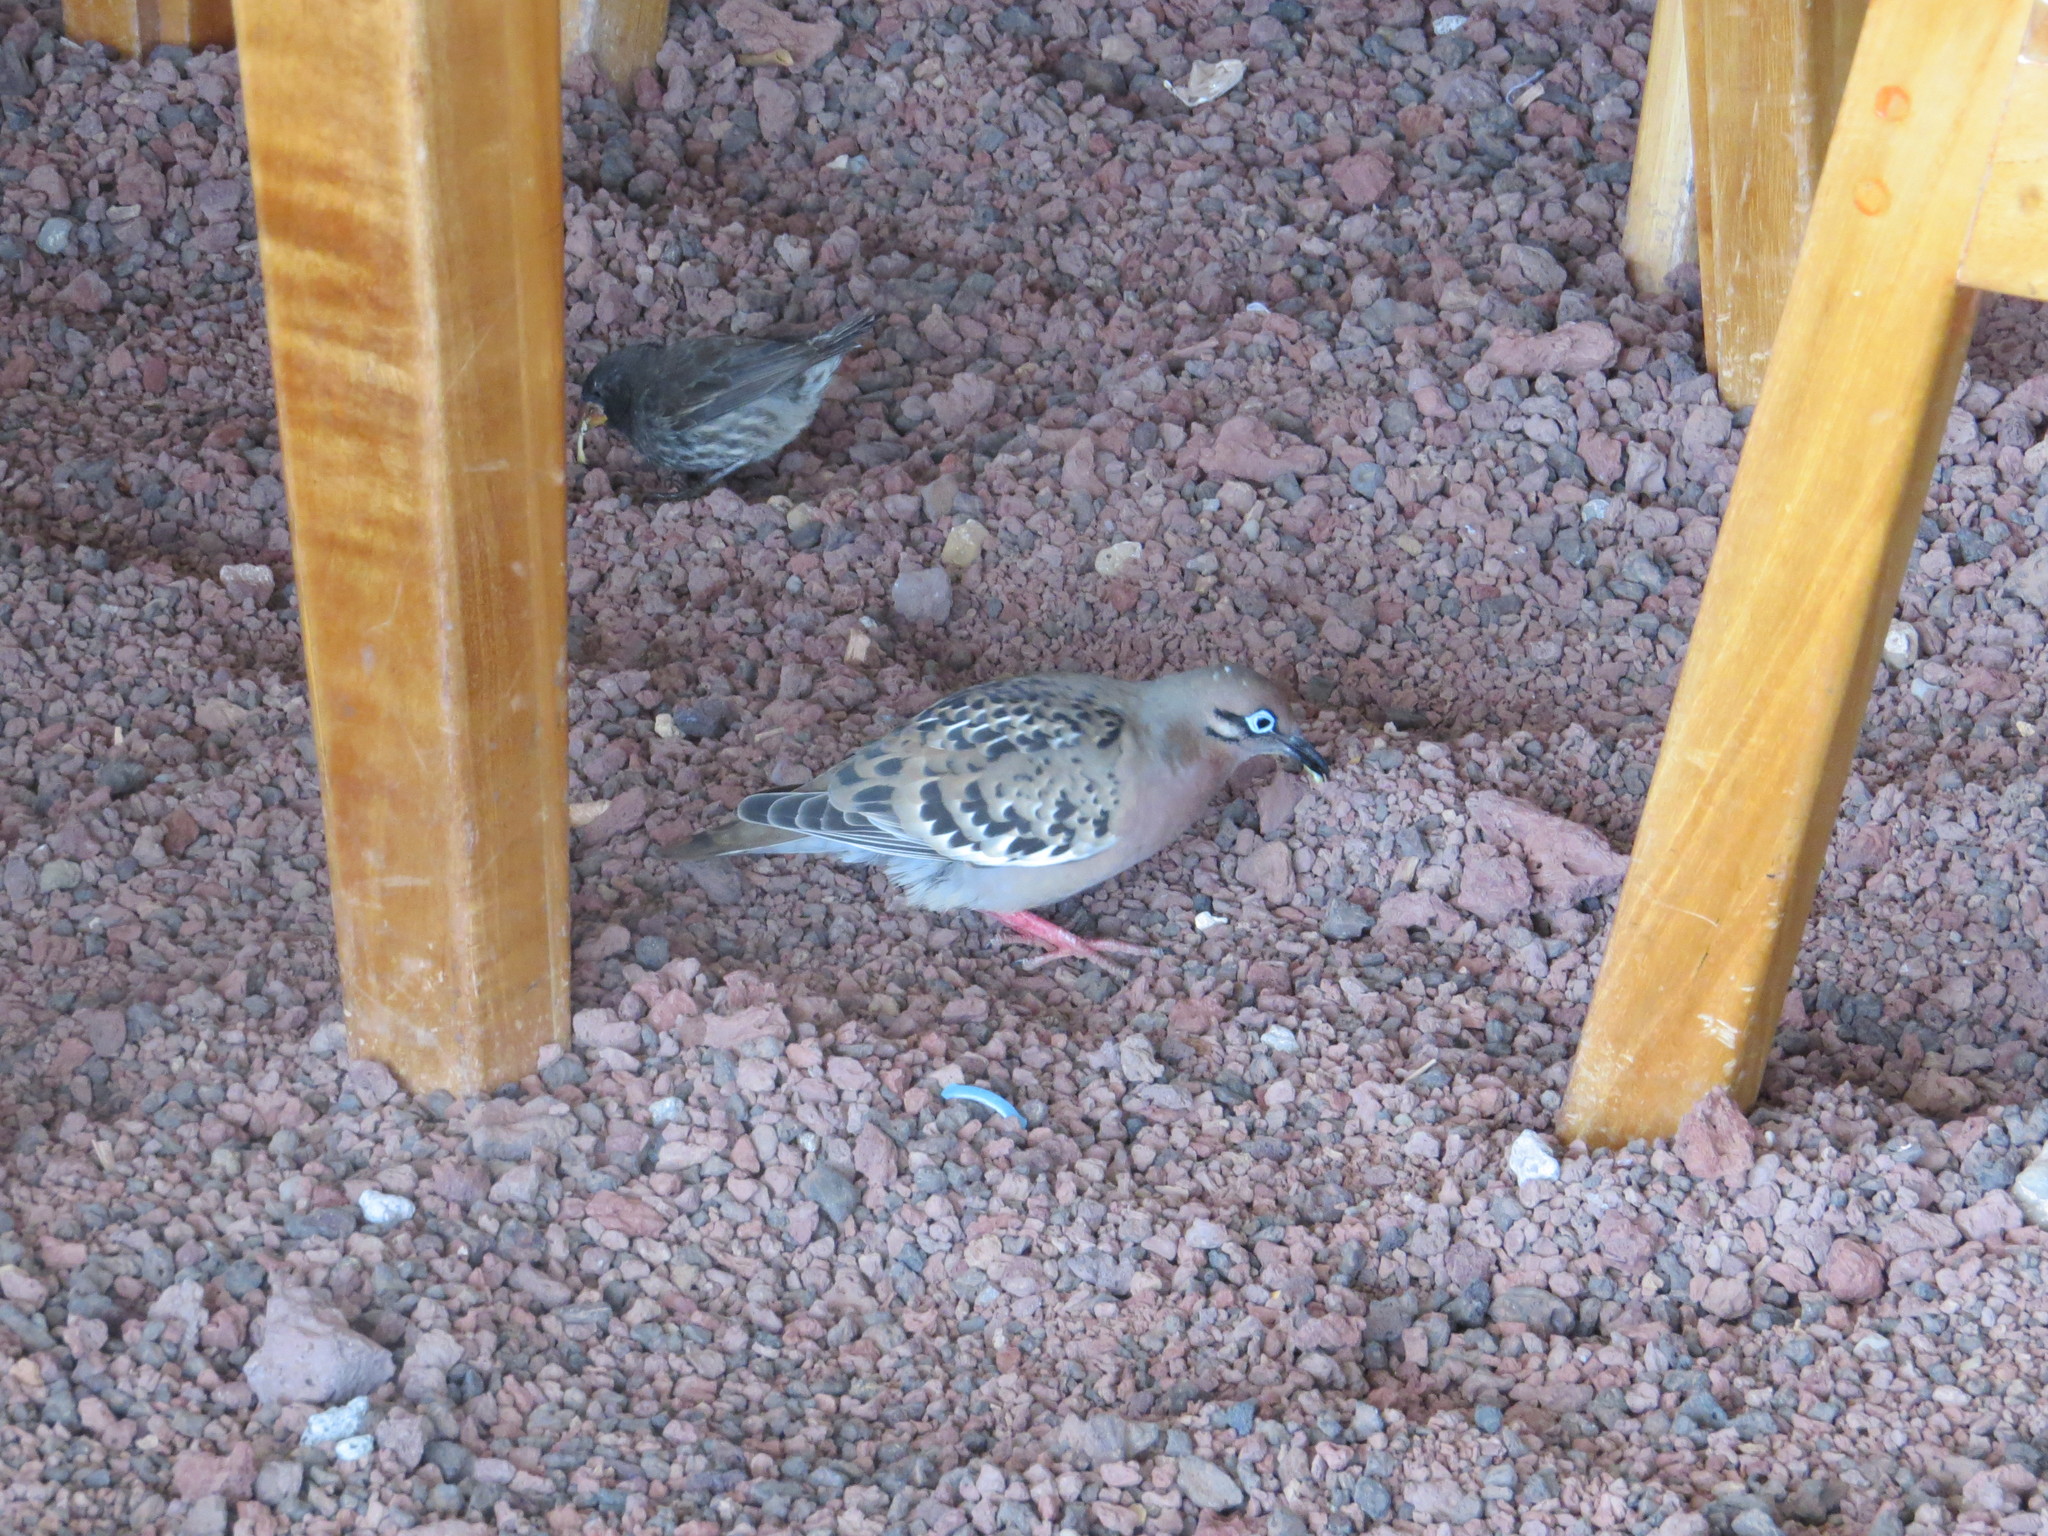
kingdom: Animalia
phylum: Chordata
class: Aves
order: Columbiformes
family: Columbidae
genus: Zenaida
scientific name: Zenaida galapagoensis
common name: Galapagos dove
